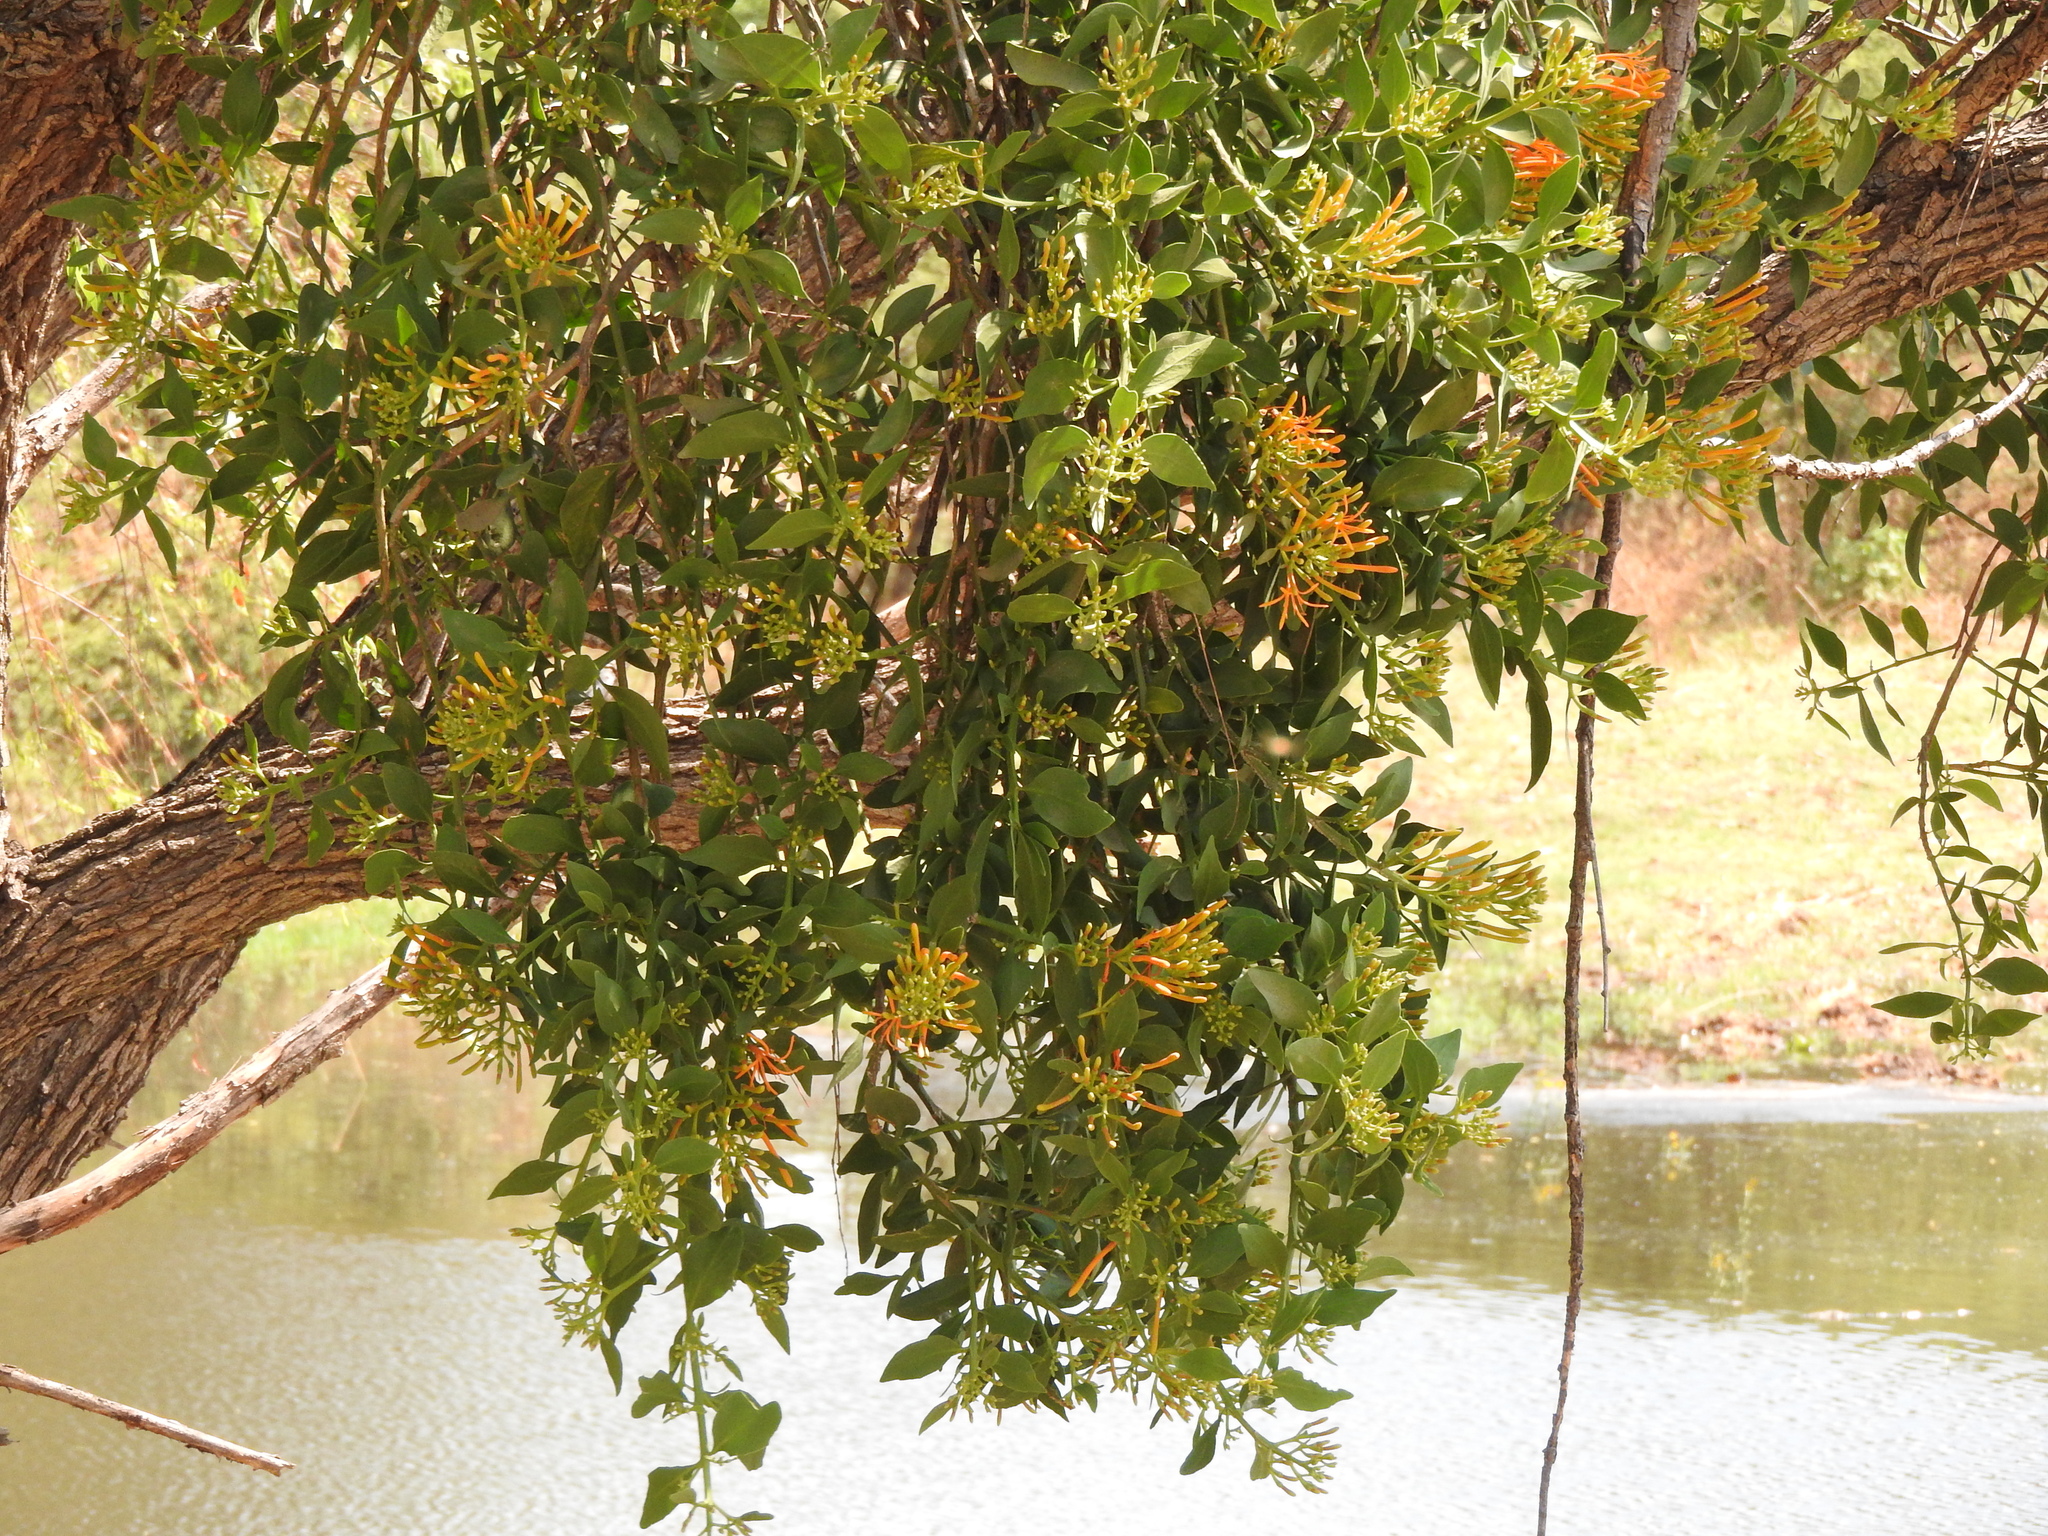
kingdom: Plantae
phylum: Tracheophyta
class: Magnoliopsida
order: Santalales
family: Loranthaceae
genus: Psittacanthus
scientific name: Psittacanthus calyculatus
